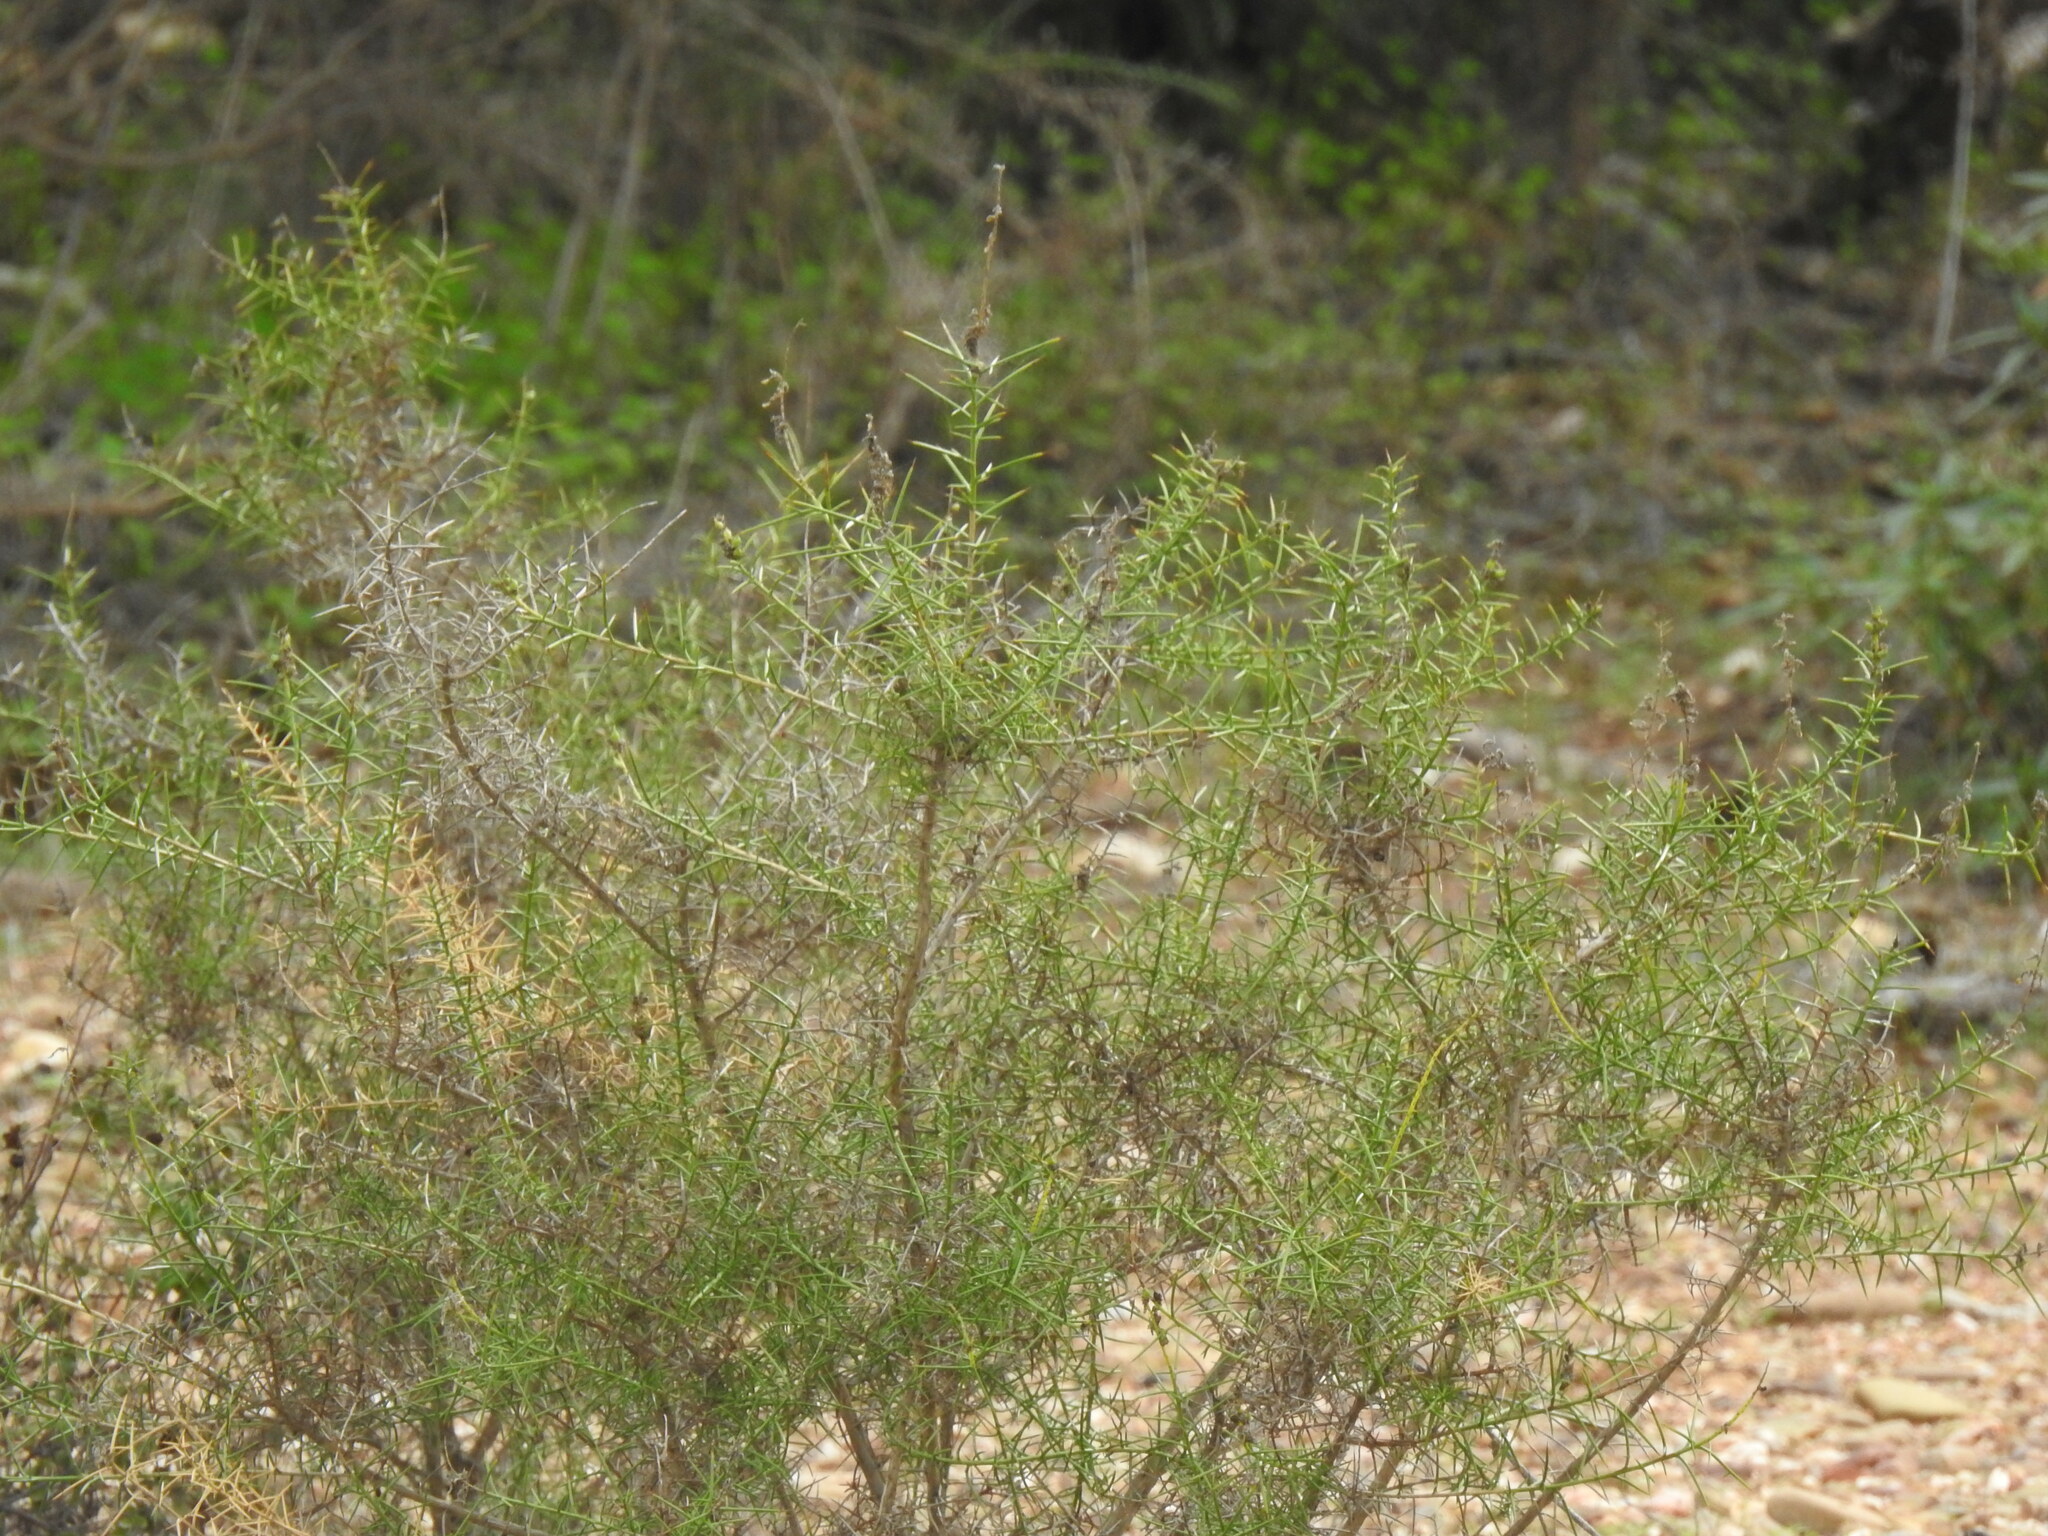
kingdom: Plantae
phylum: Tracheophyta
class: Magnoliopsida
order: Fabales
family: Fabaceae
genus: Genista
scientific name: Genista hirsuta
